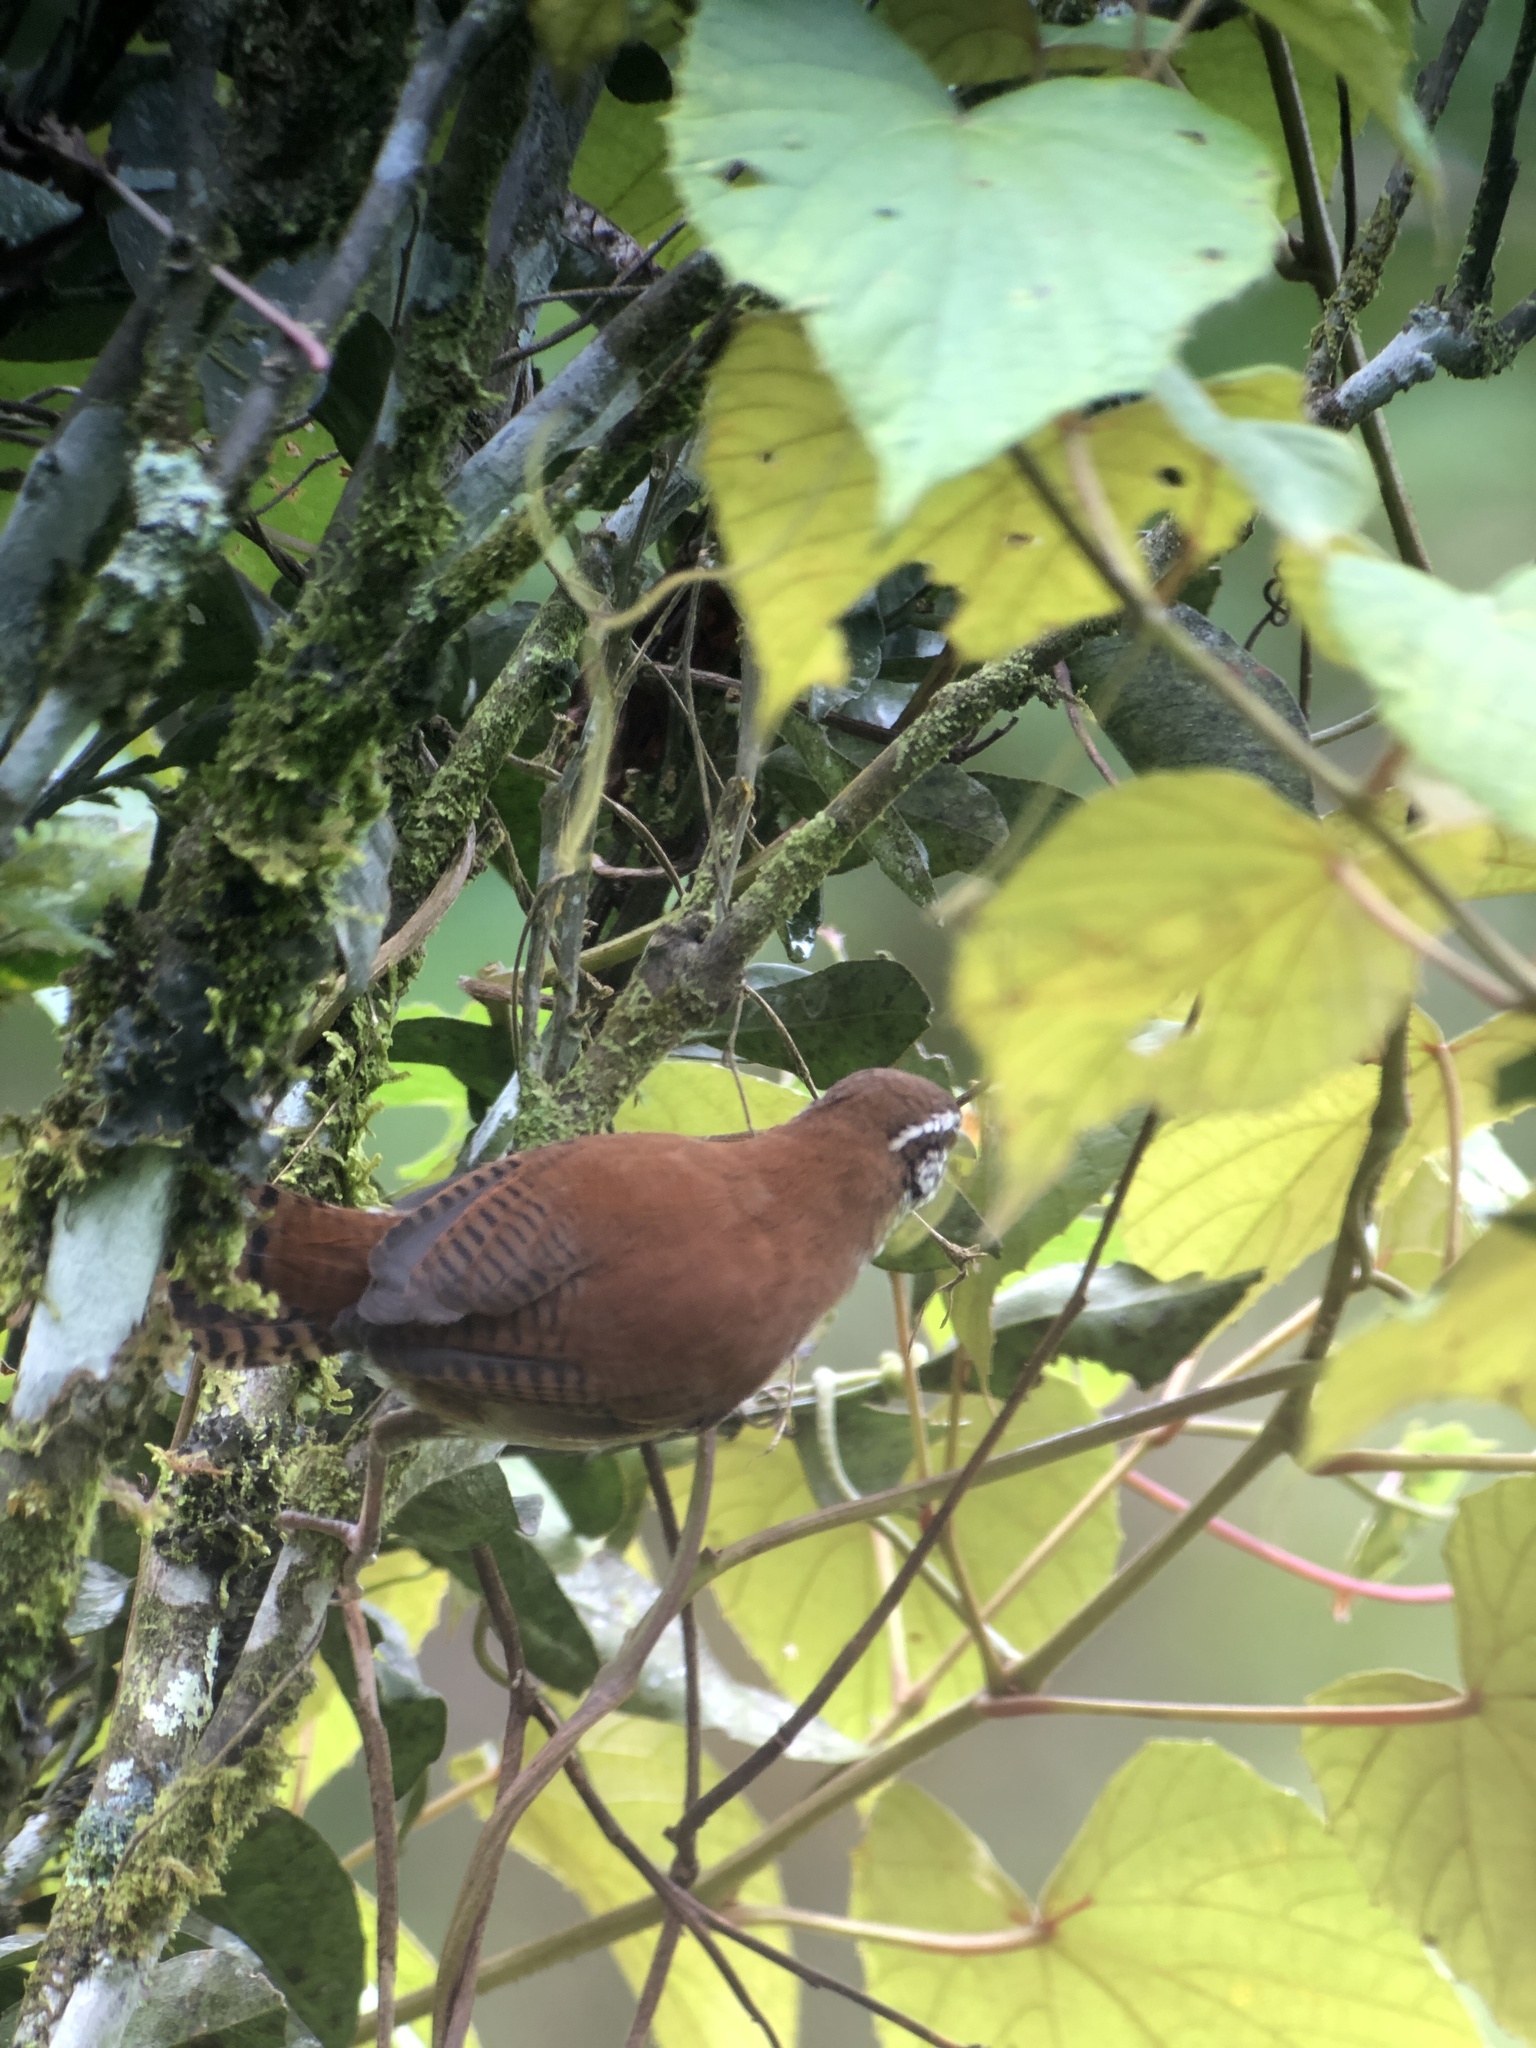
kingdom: Animalia
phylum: Chordata
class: Aves
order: Passeriformes
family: Troglodytidae
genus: Thryophilus
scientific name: Thryophilus rufalbus
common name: Rufous-and-white wren
